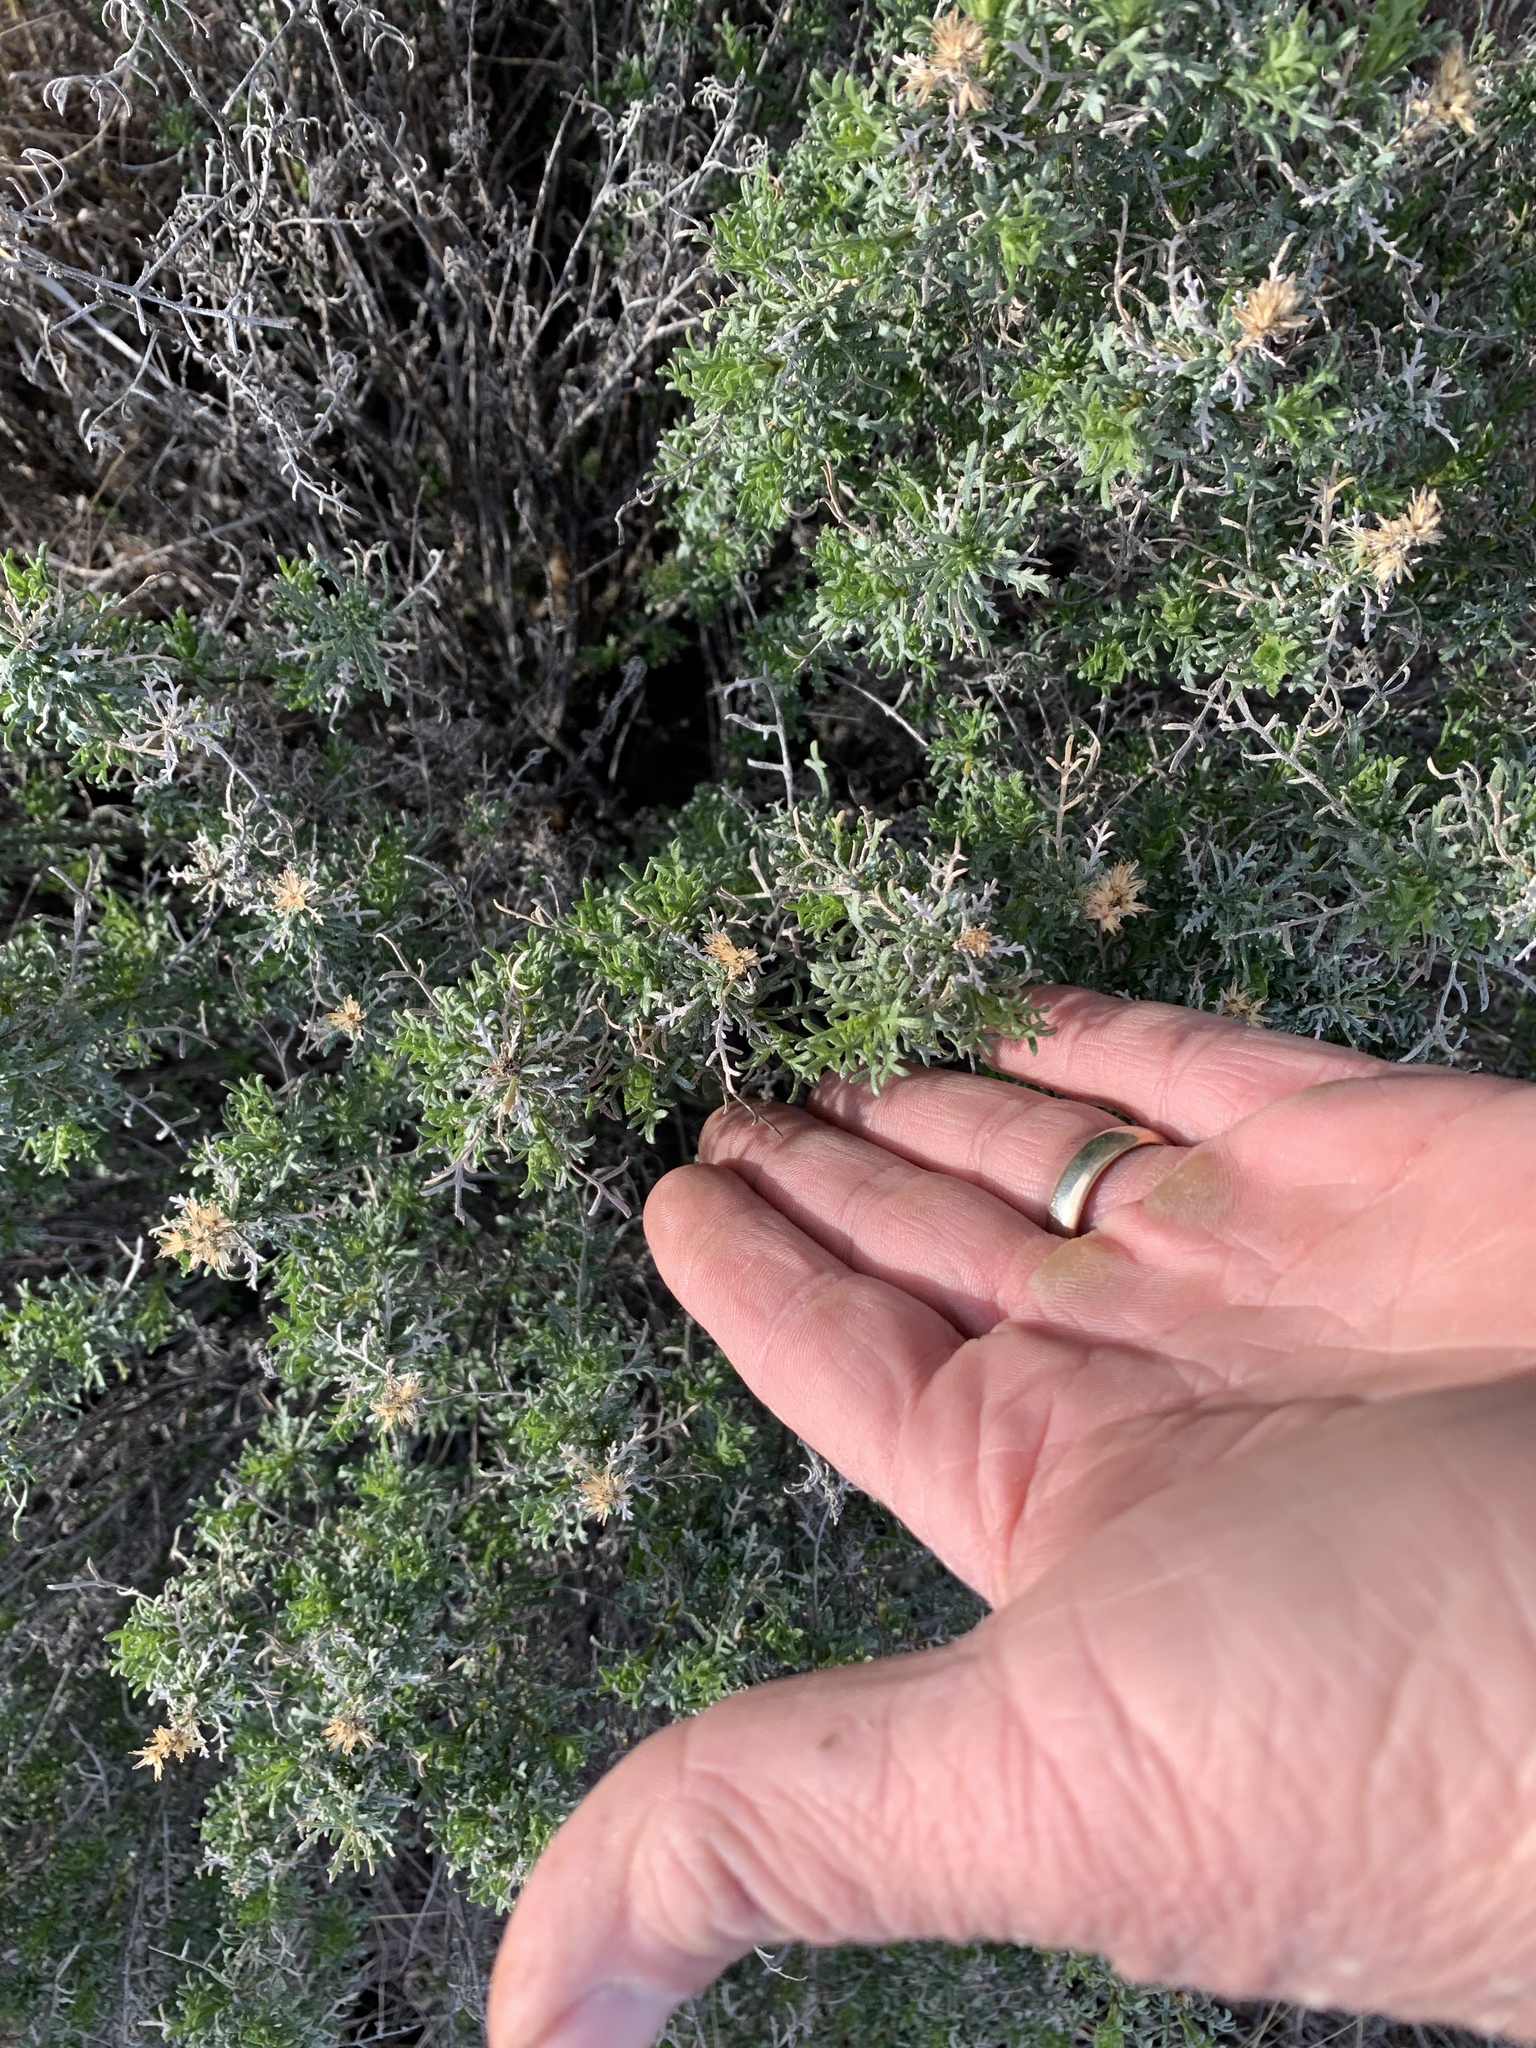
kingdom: Plantae
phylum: Tracheophyta
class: Magnoliopsida
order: Asterales
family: Asteraceae
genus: Isocoma
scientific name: Isocoma tenuisecta
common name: Burroweed
